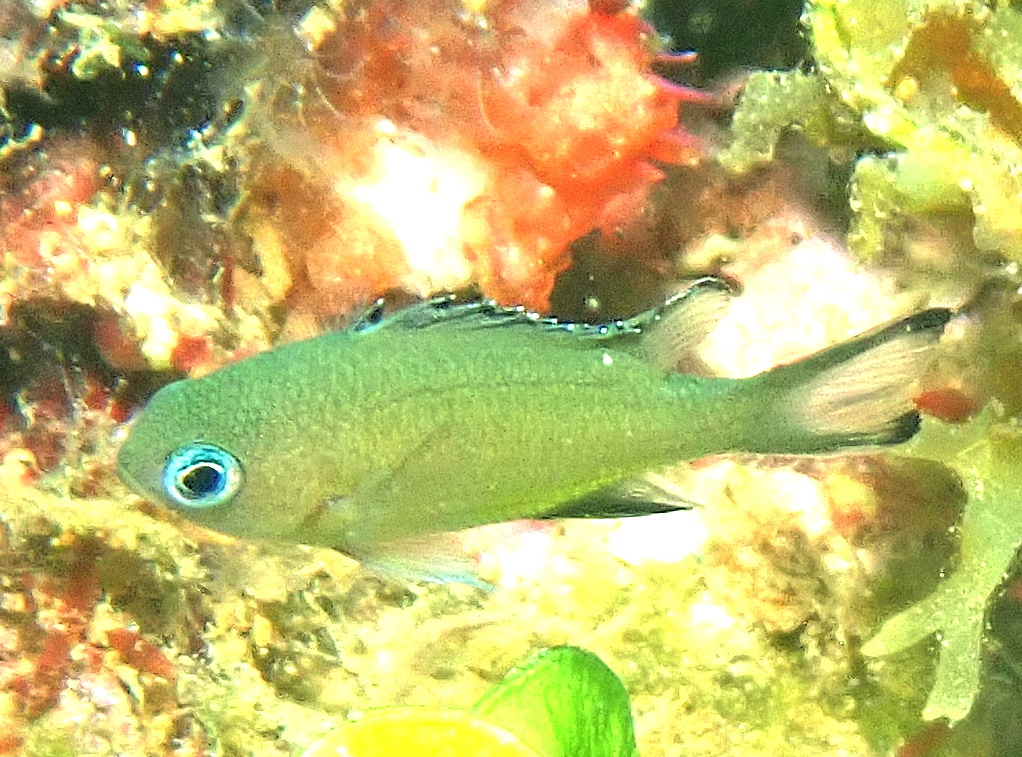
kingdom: Animalia
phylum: Chordata
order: Perciformes
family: Pomacentridae
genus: Chromis
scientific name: Chromis lepidolepis
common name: Scaly chromis
